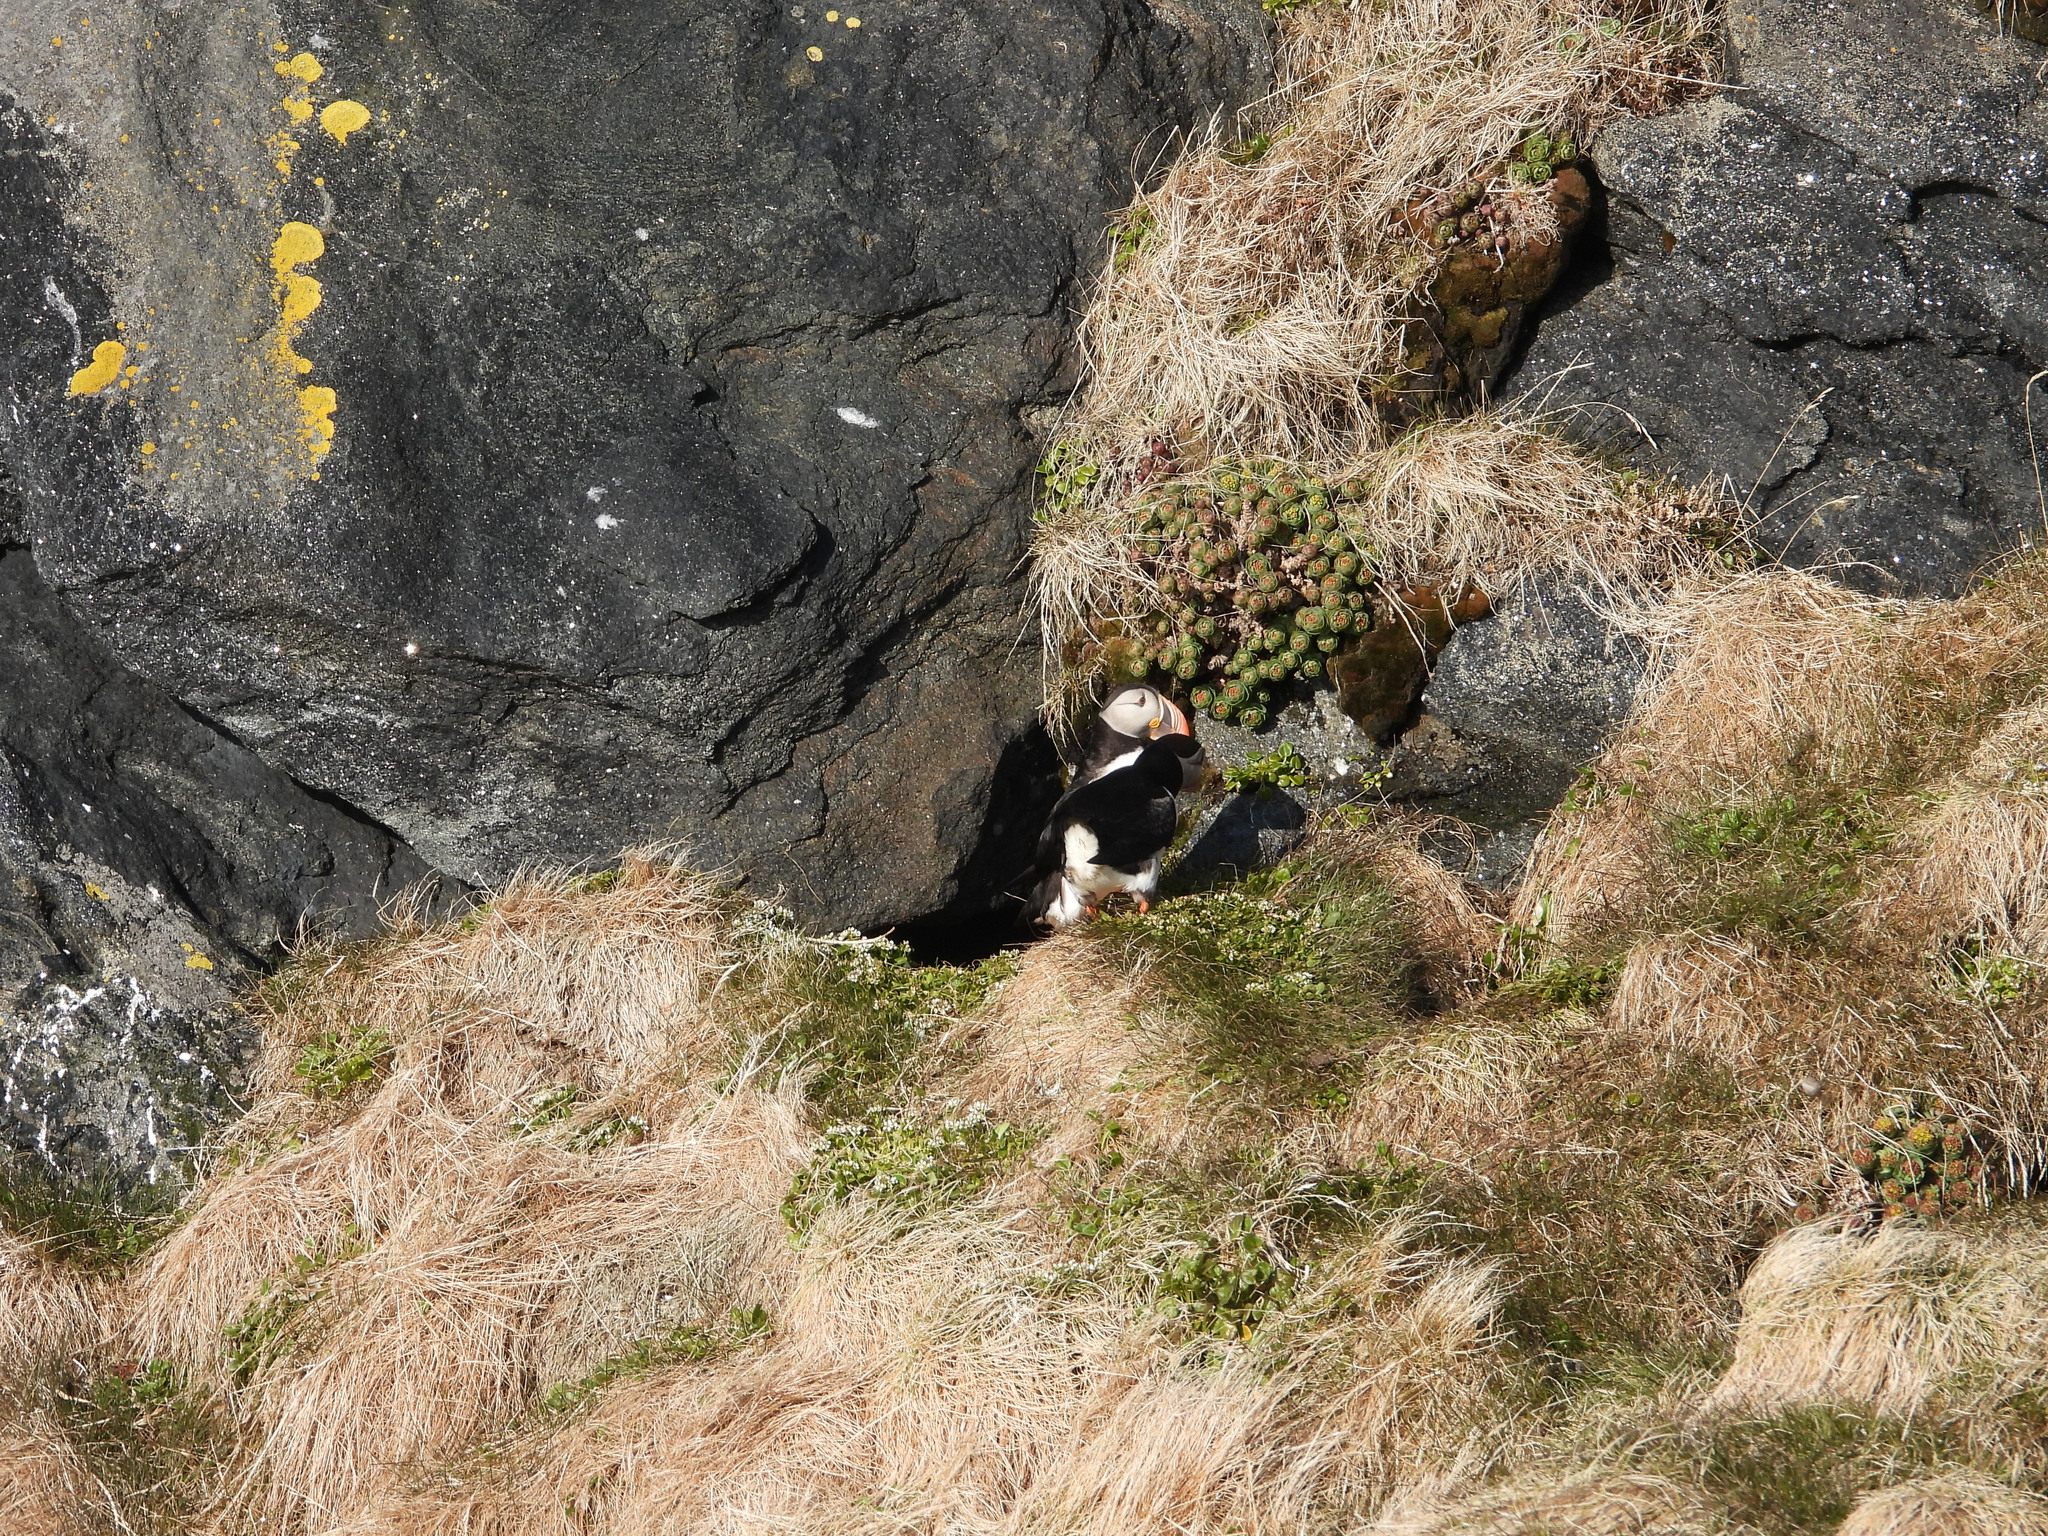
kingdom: Animalia
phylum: Chordata
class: Aves
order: Charadriiformes
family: Alcidae
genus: Fratercula
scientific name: Fratercula arctica
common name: Atlantic puffin
